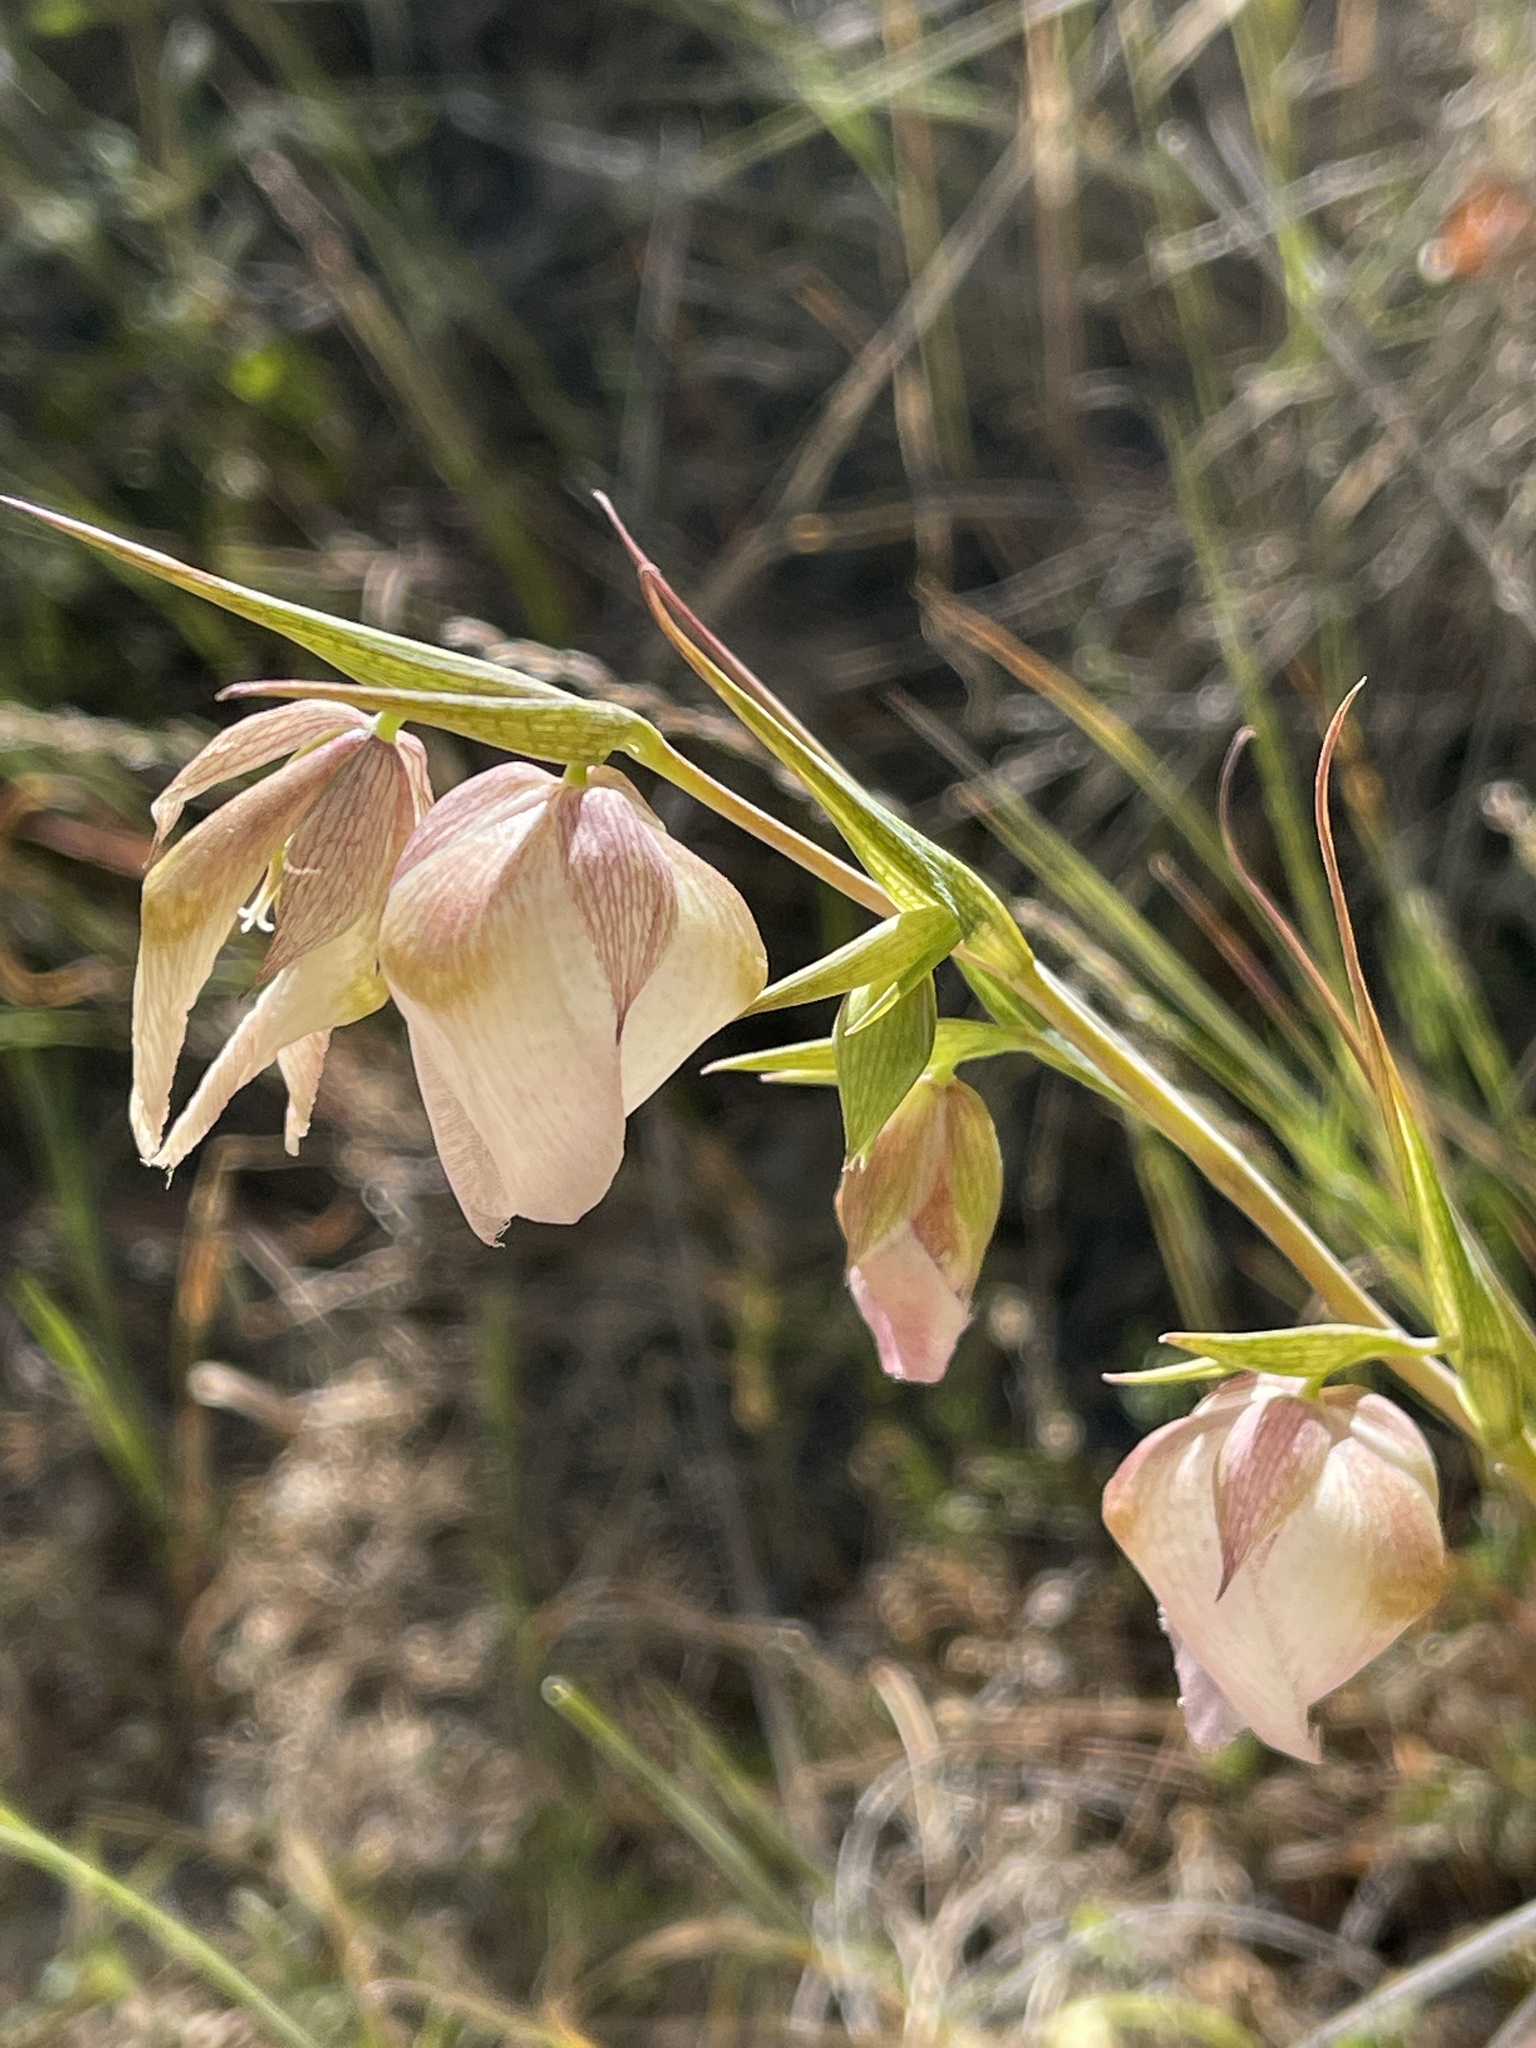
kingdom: Plantae
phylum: Tracheophyta
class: Liliopsida
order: Liliales
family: Liliaceae
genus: Calochortus
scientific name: Calochortus albus
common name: Fairy-lantern
